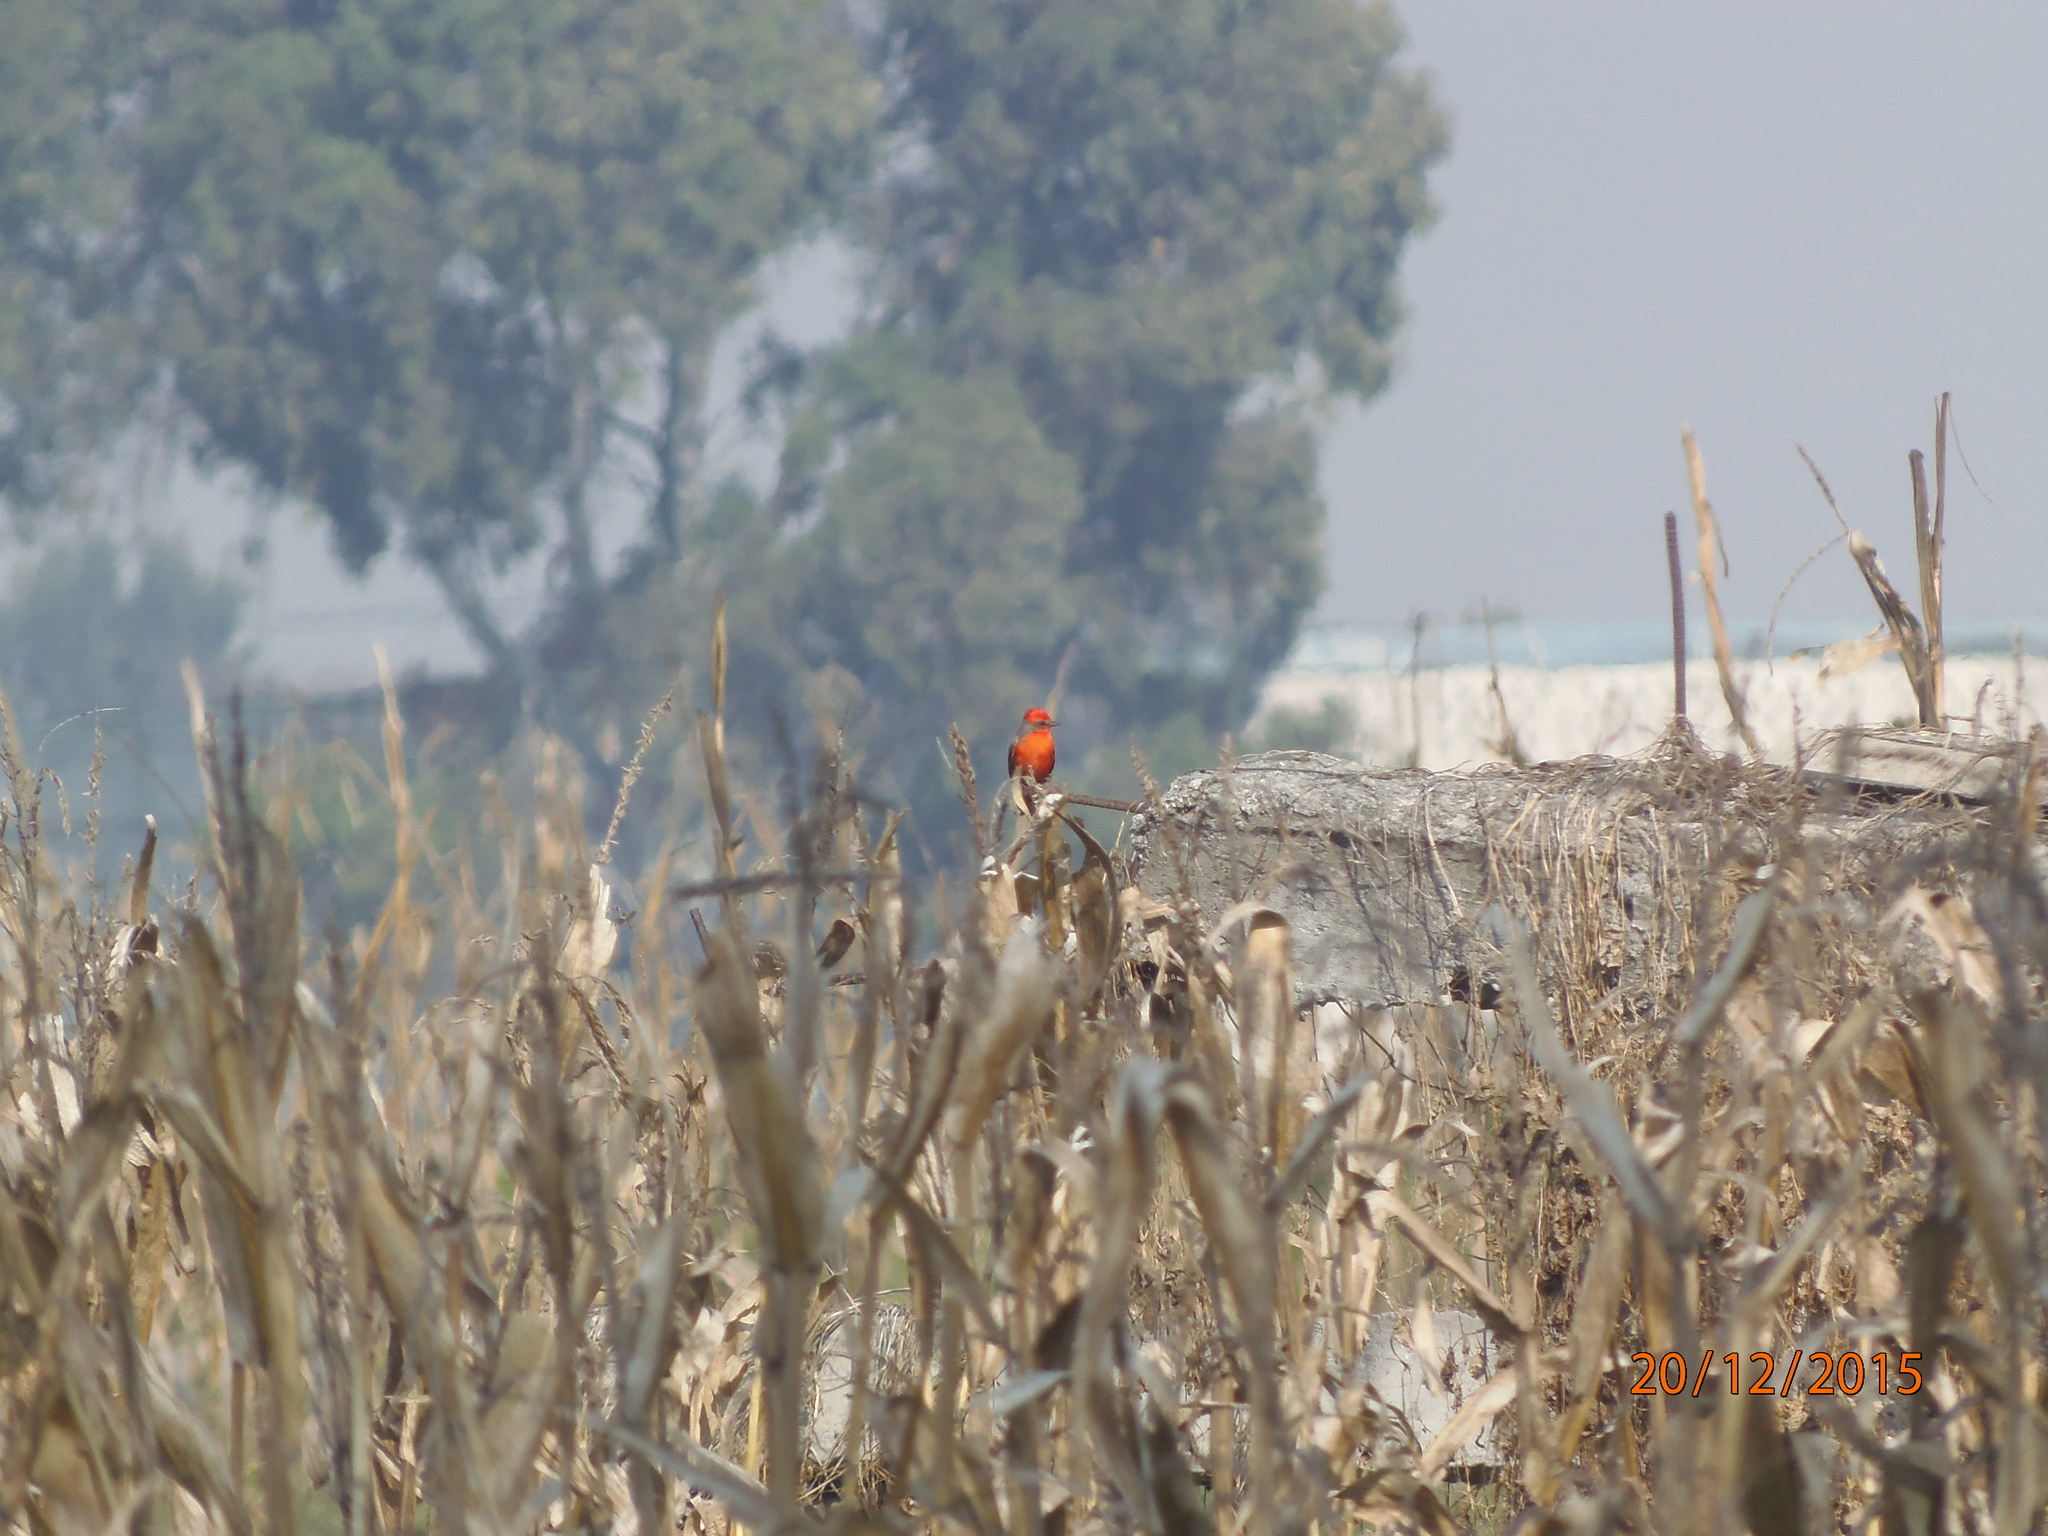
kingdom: Animalia
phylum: Chordata
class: Aves
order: Passeriformes
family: Tyrannidae
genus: Pyrocephalus
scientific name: Pyrocephalus rubinus
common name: Vermilion flycatcher
